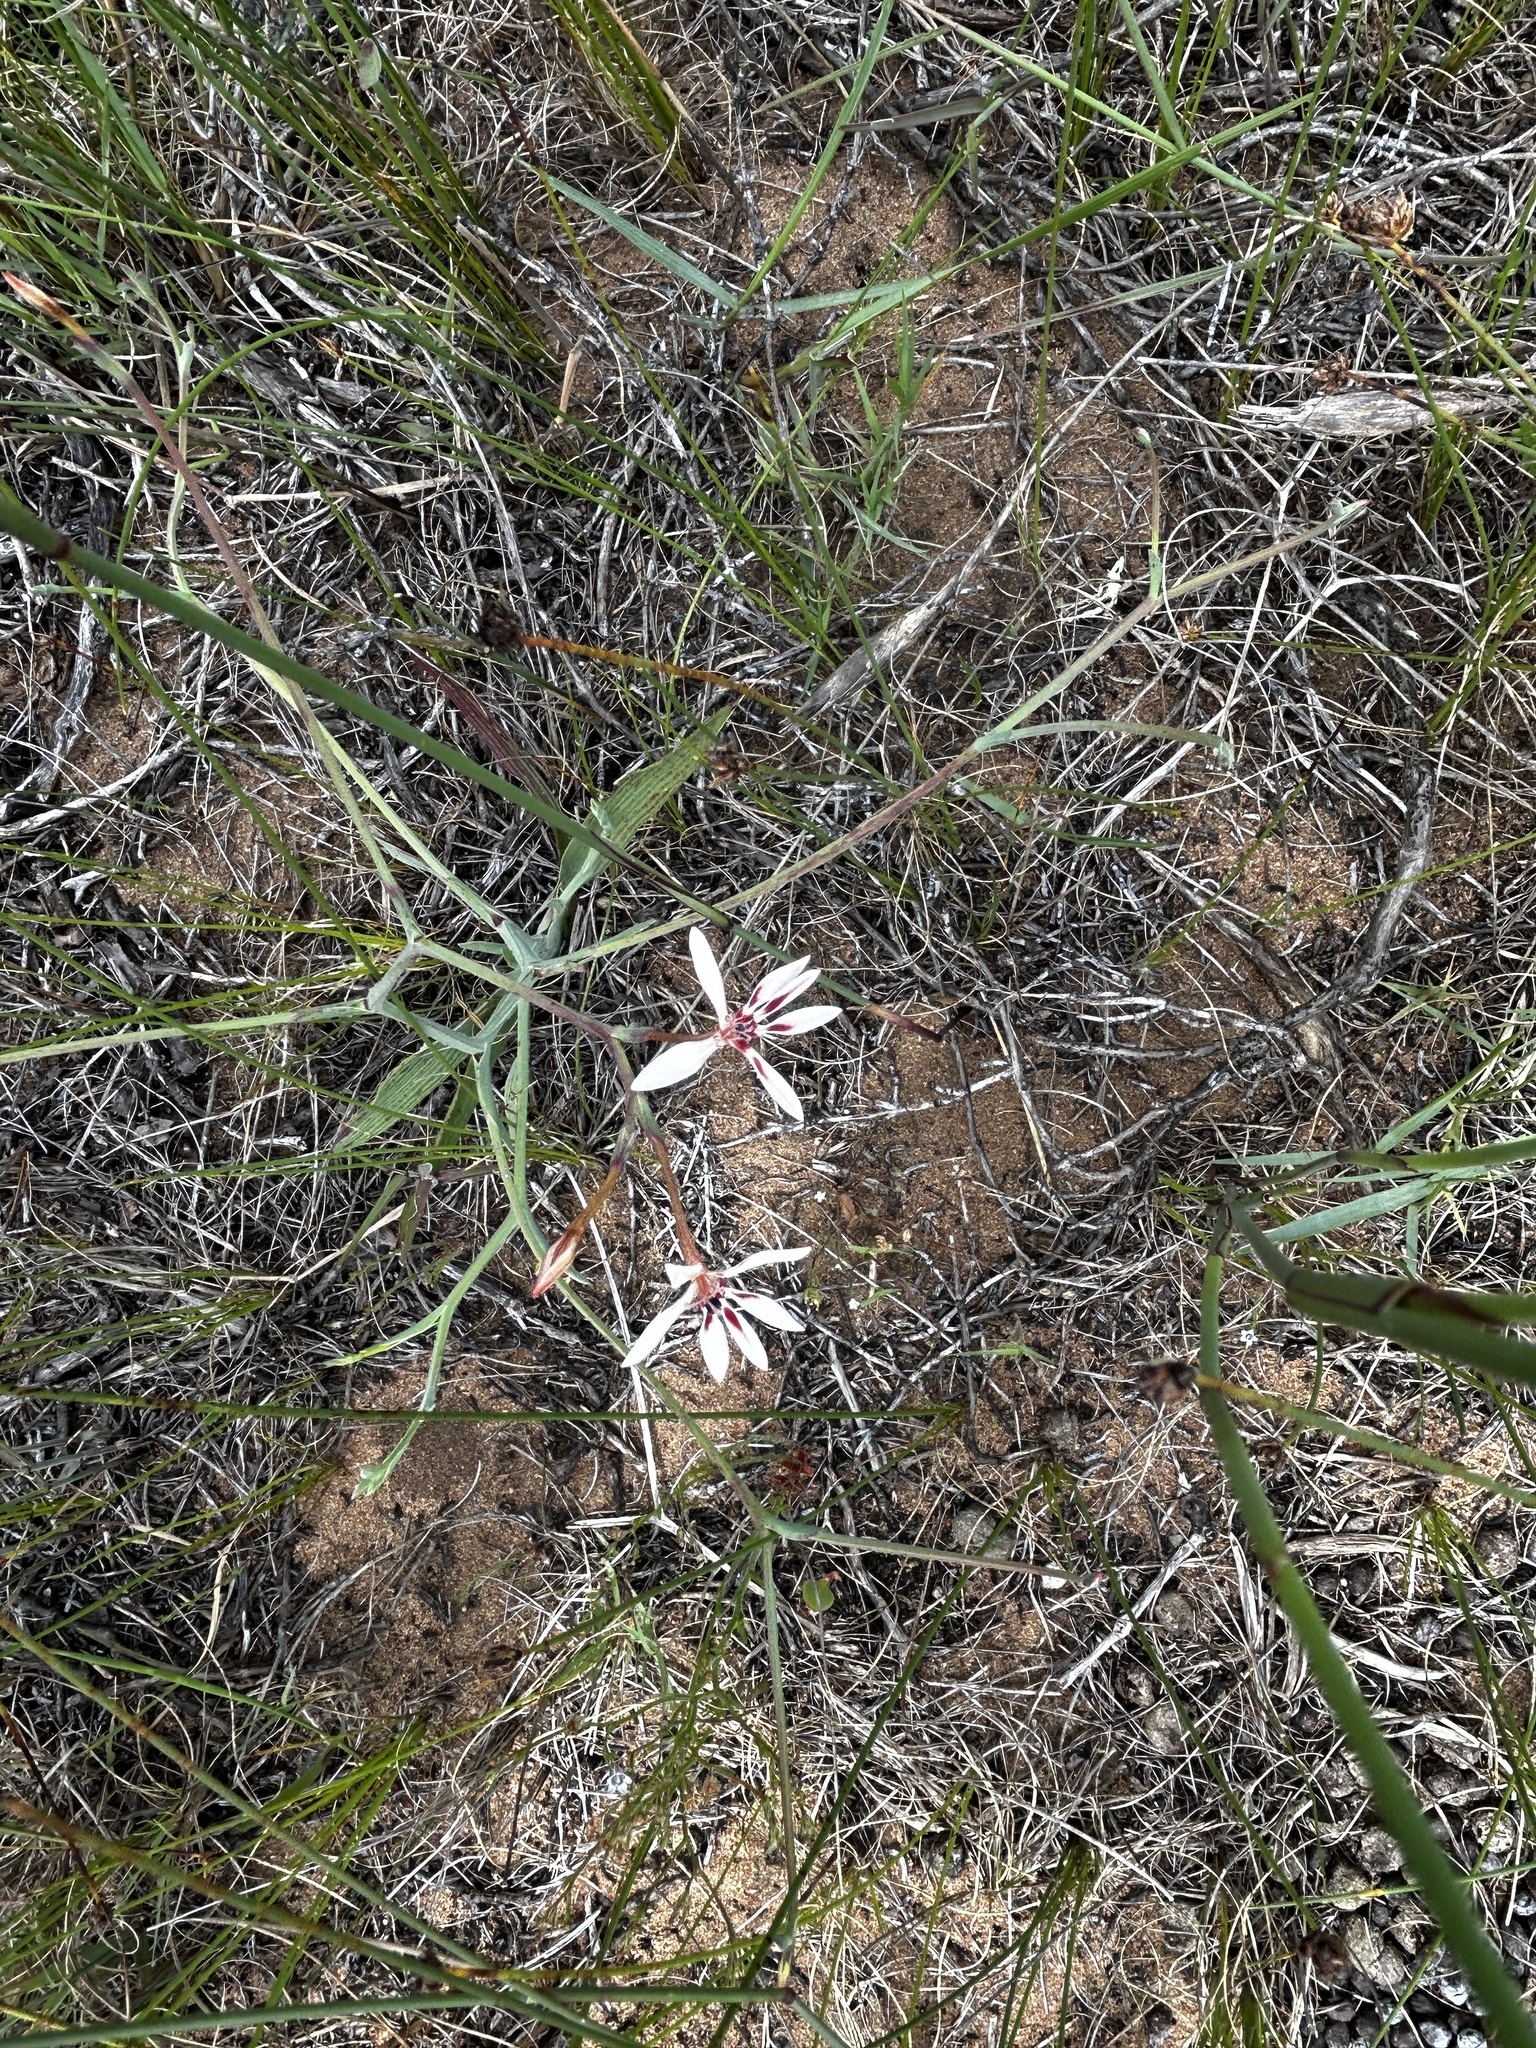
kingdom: Plantae
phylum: Tracheophyta
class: Liliopsida
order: Asparagales
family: Iridaceae
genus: Lapeirousia
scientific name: Lapeirousia anceps
